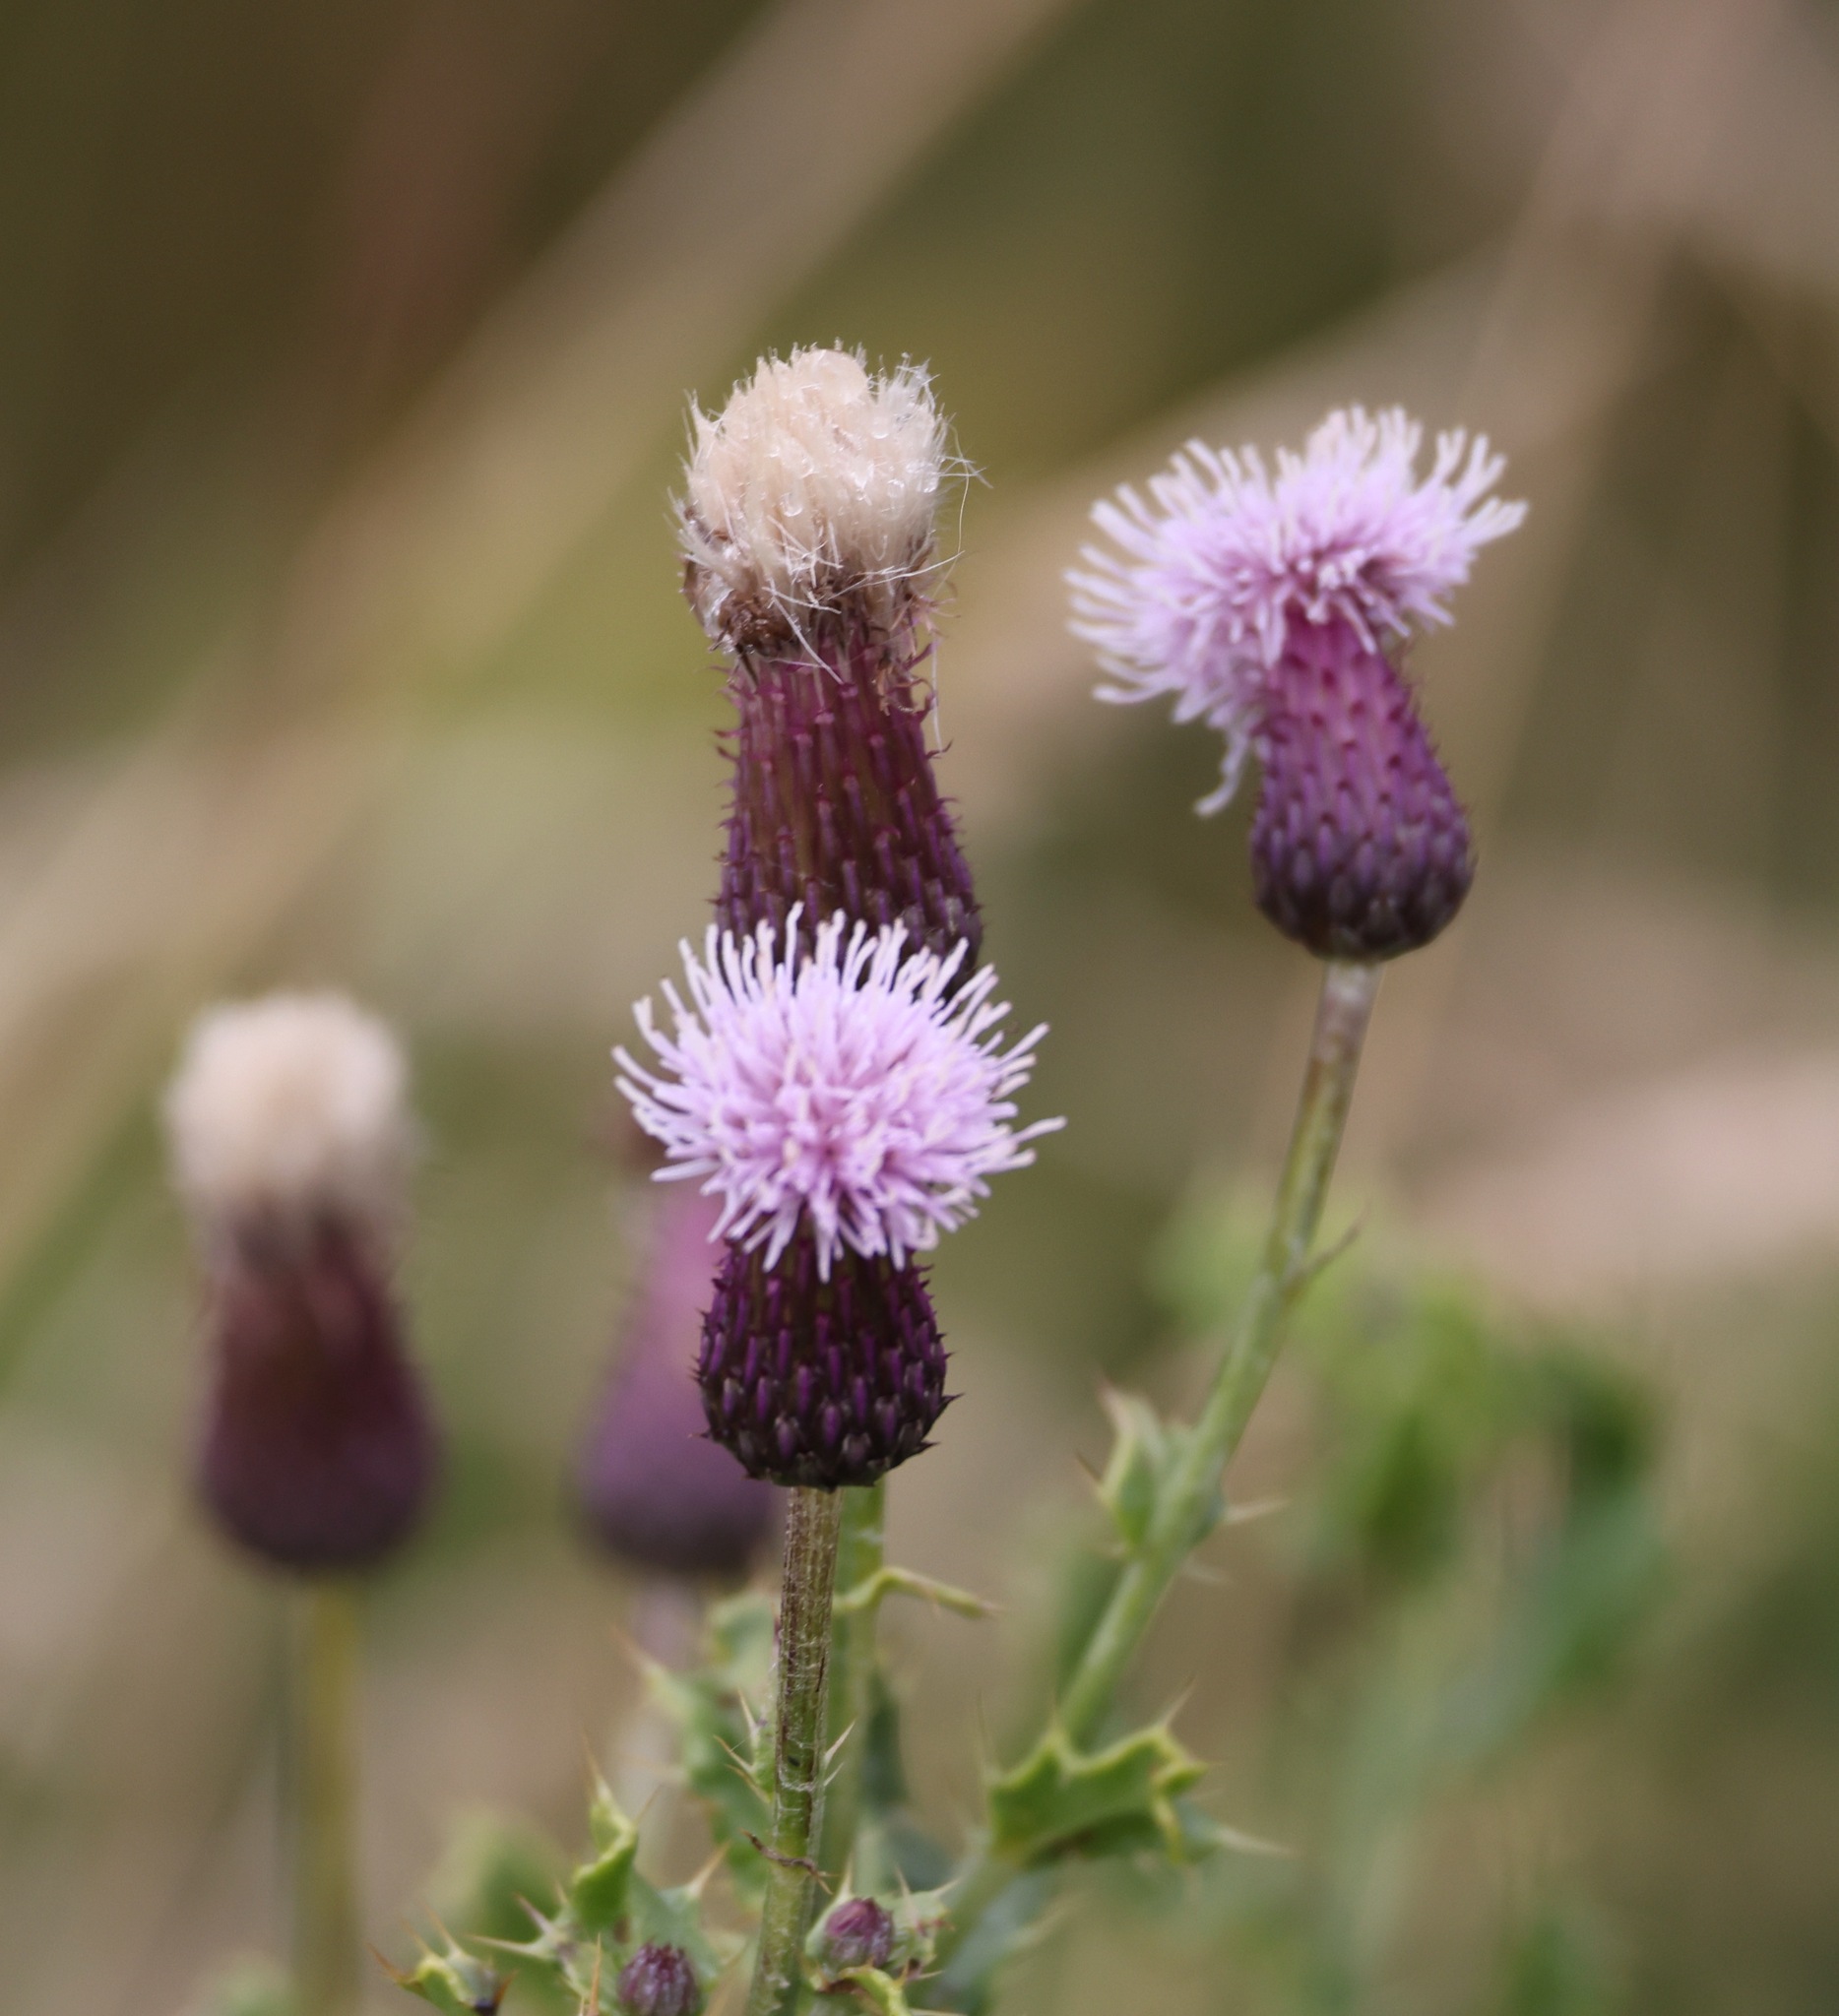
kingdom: Plantae
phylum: Tracheophyta
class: Magnoliopsida
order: Asterales
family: Asteraceae
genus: Cirsium
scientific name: Cirsium arvense
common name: Creeping thistle
